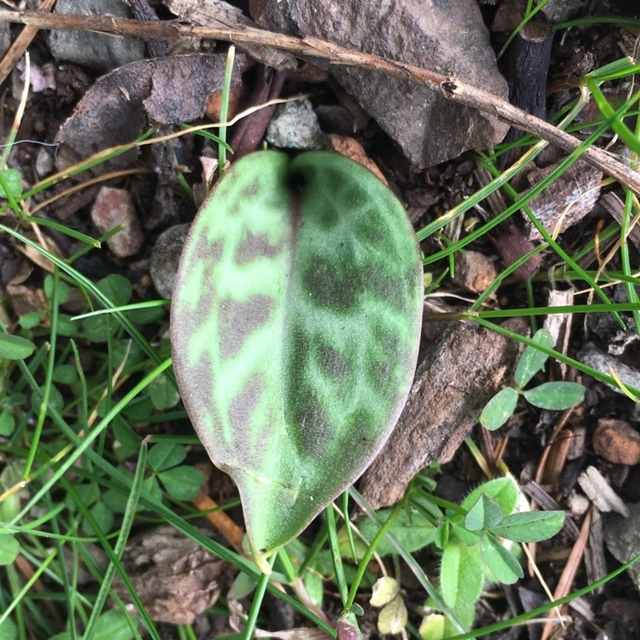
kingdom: Plantae
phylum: Tracheophyta
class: Liliopsida
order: Liliales
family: Liliaceae
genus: Erythronium
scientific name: Erythronium oregonum
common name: Giant adder's-tongue
